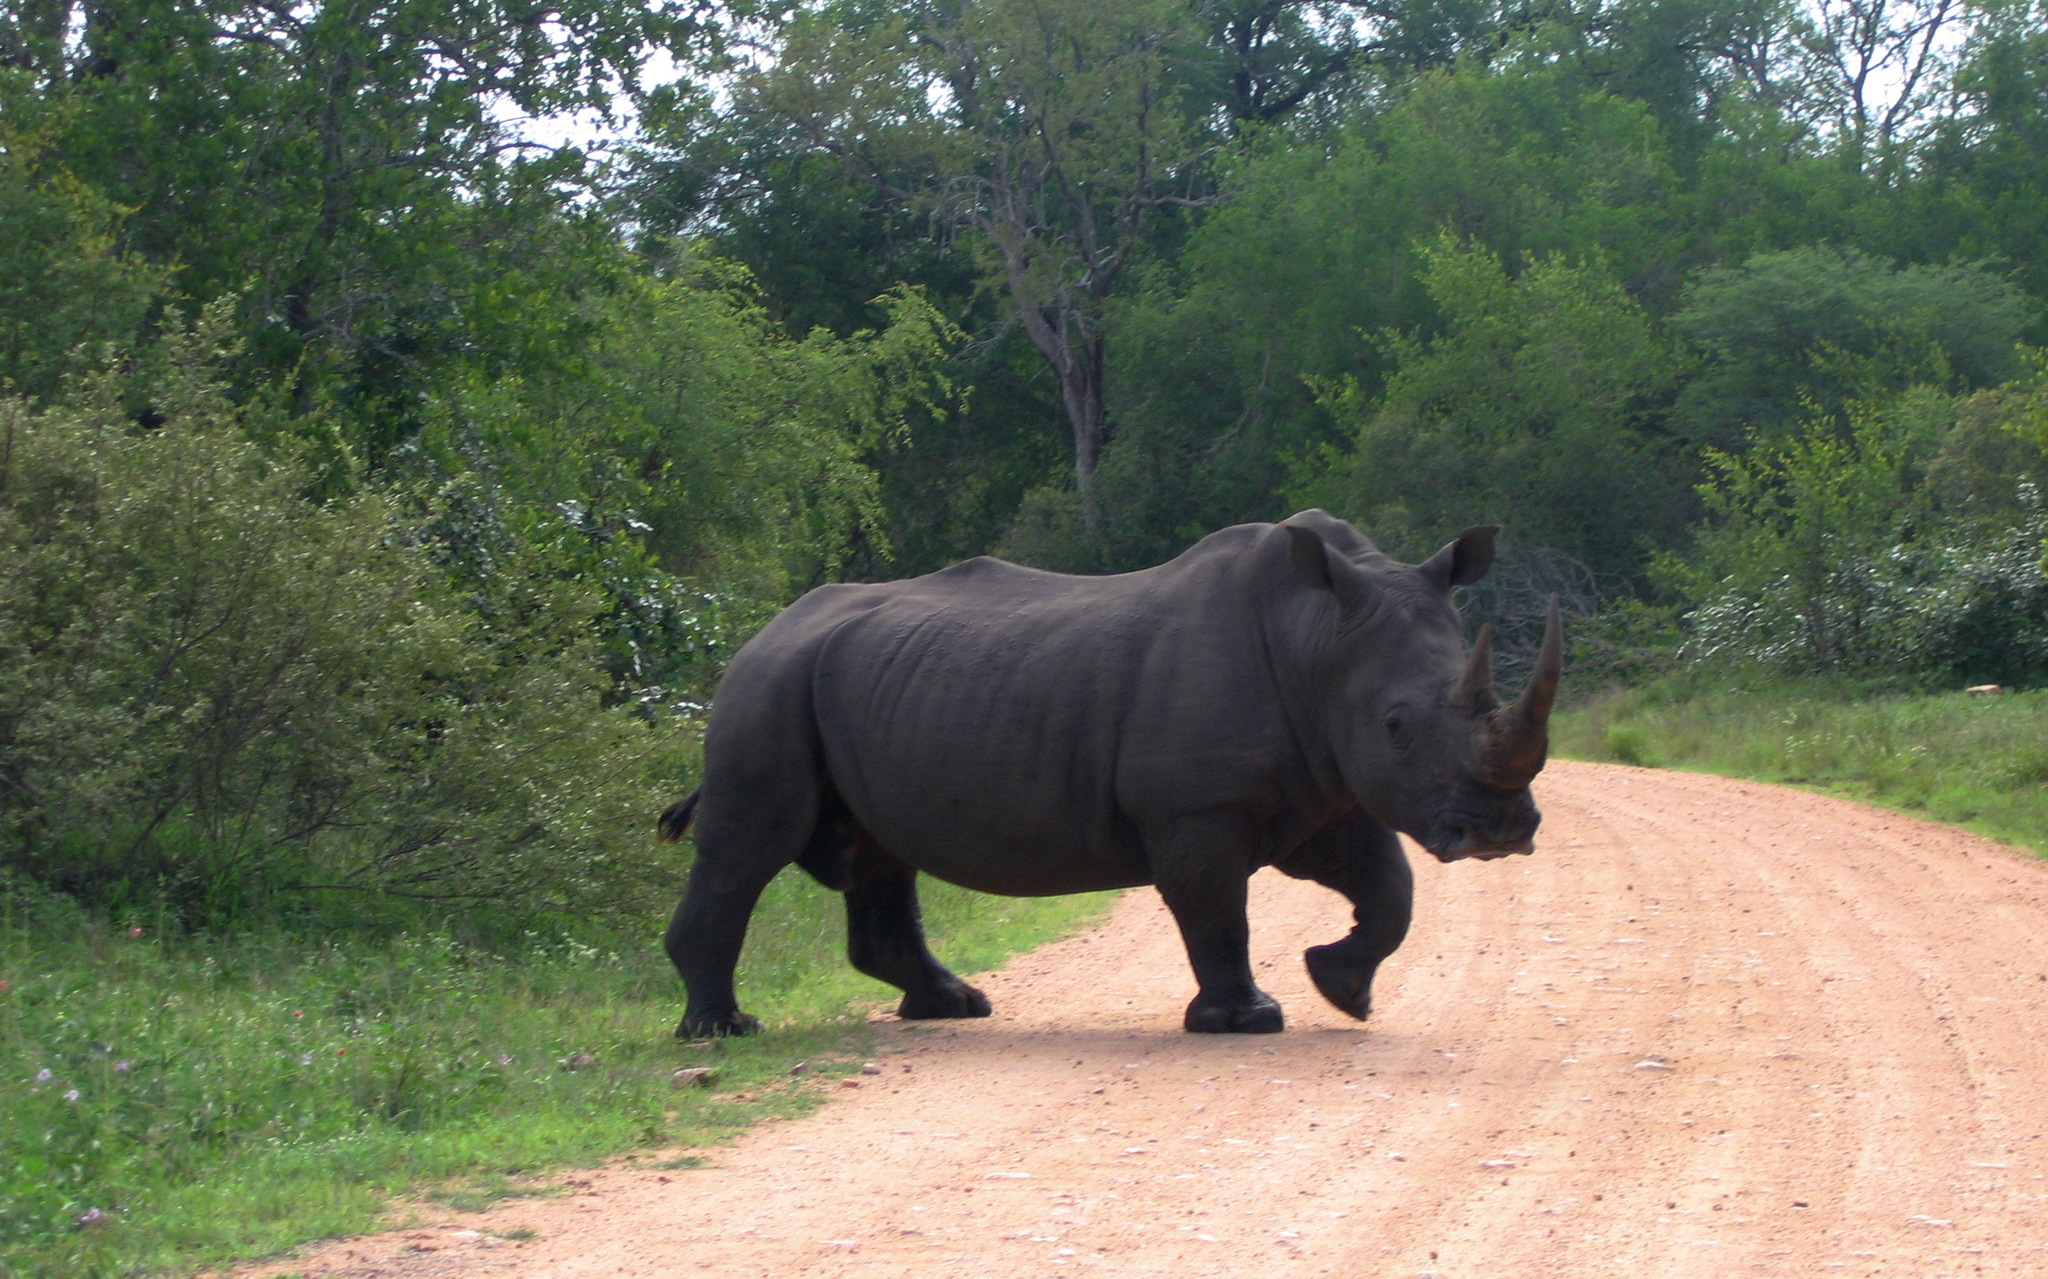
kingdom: Animalia
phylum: Chordata
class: Mammalia
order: Perissodactyla
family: Rhinocerotidae
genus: Ceratotherium
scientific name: Ceratotherium simum
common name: White rhinoceros
